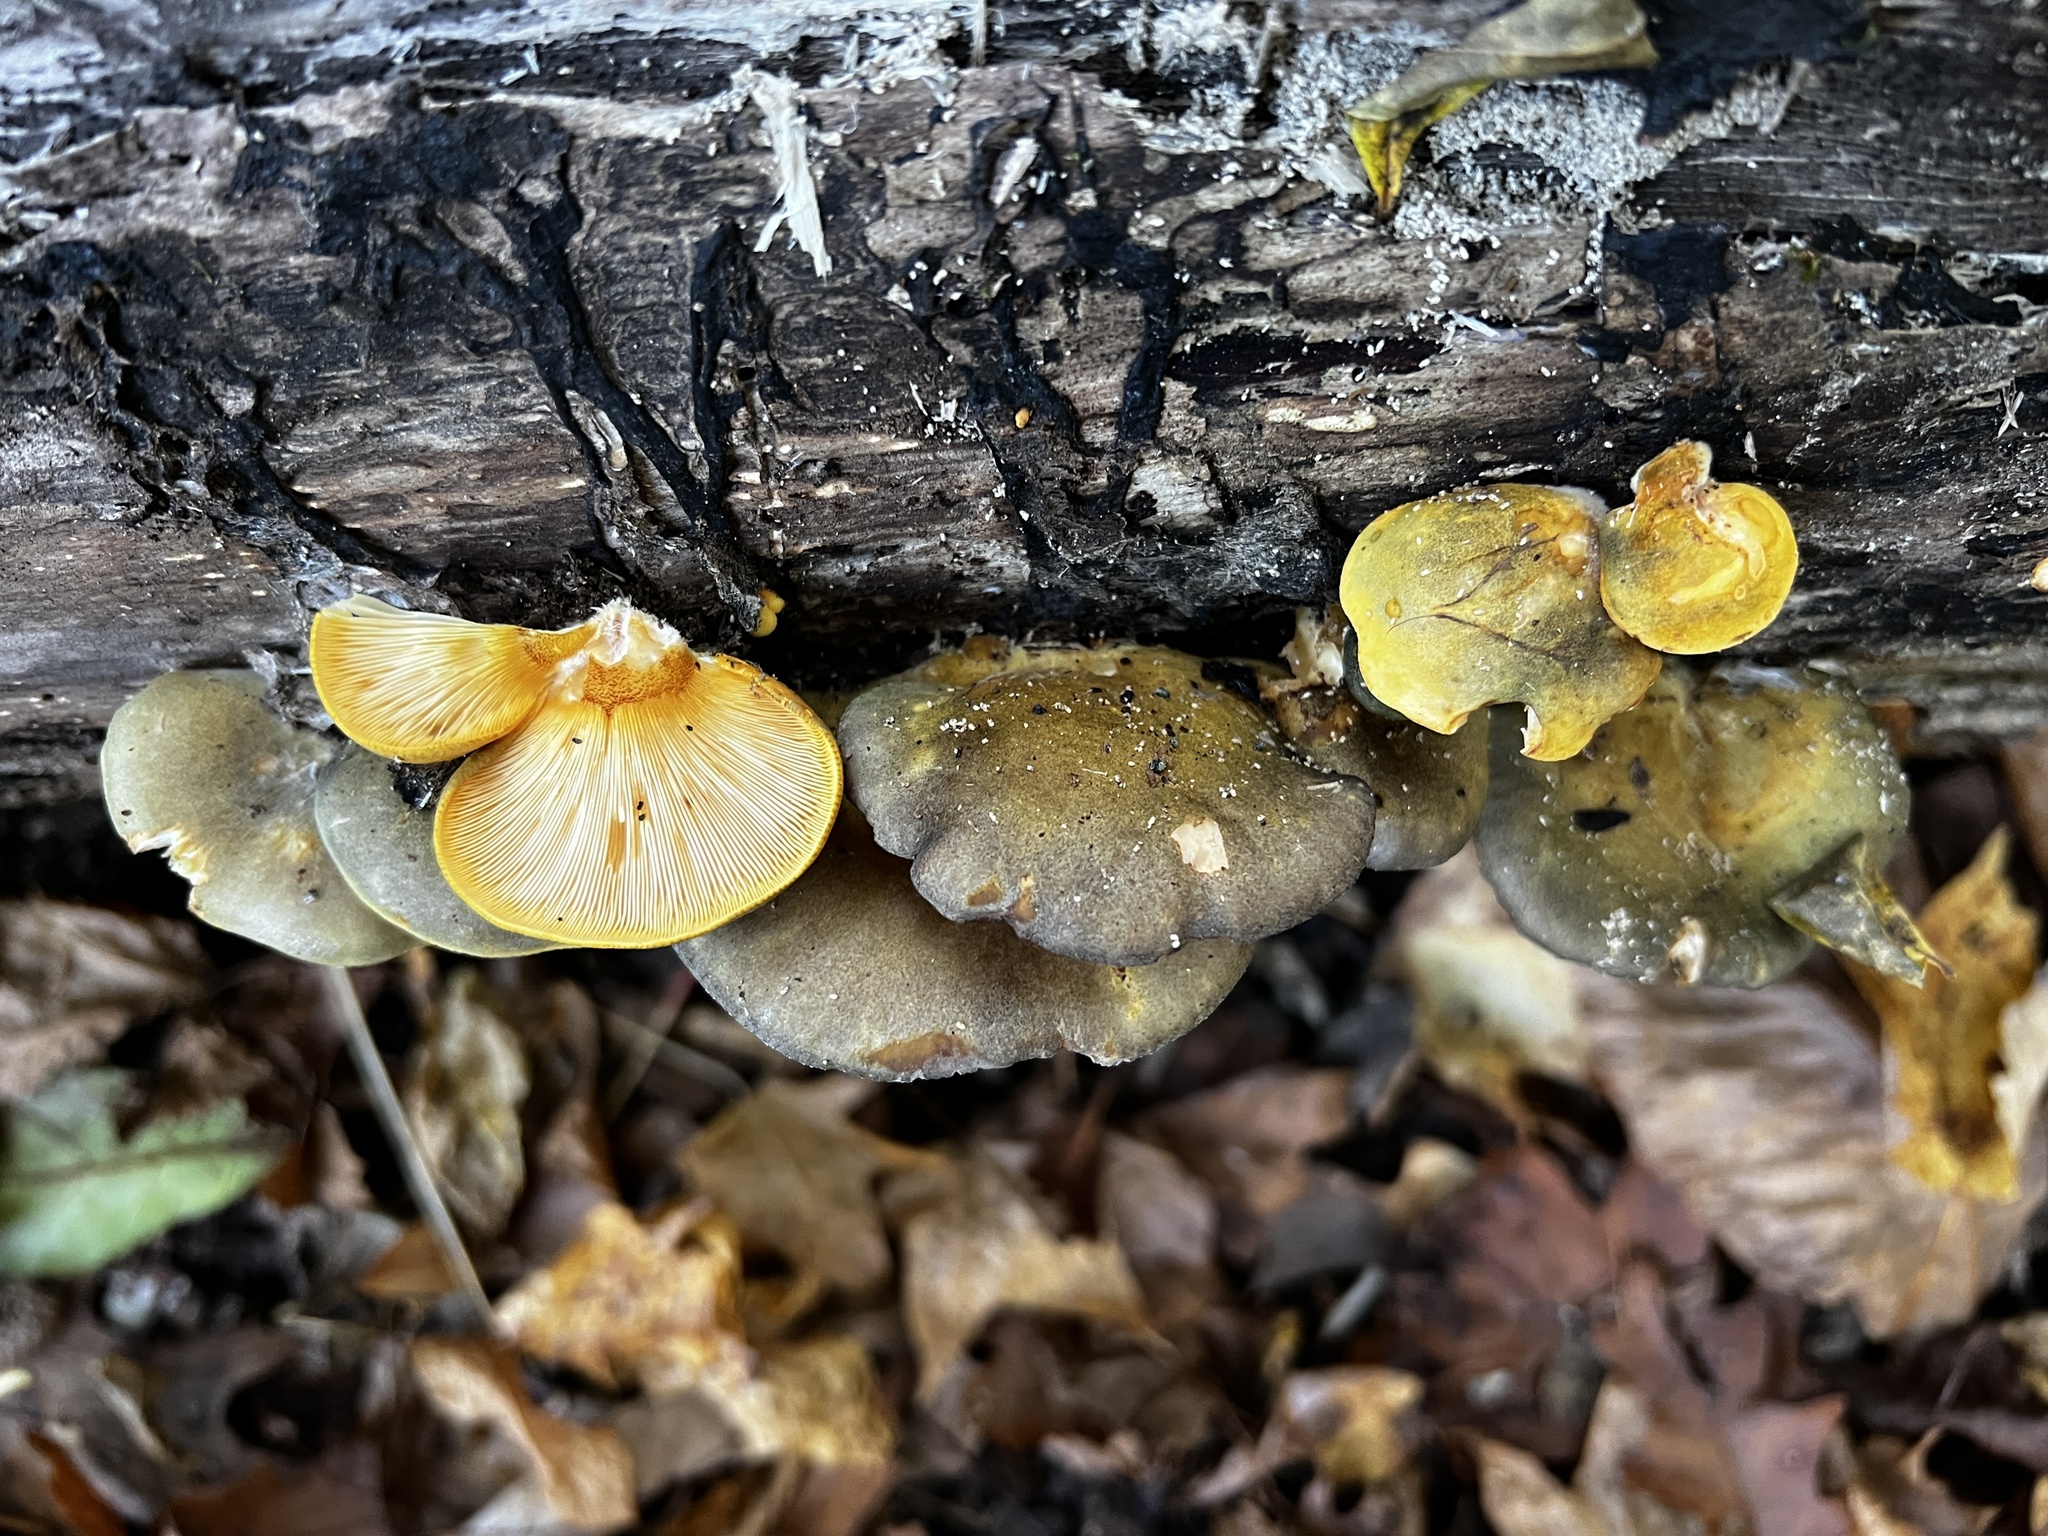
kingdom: Fungi
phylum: Basidiomycota
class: Agaricomycetes
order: Agaricales
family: Sarcomyxaceae
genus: Sarcomyxa
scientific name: Sarcomyxa serotina
